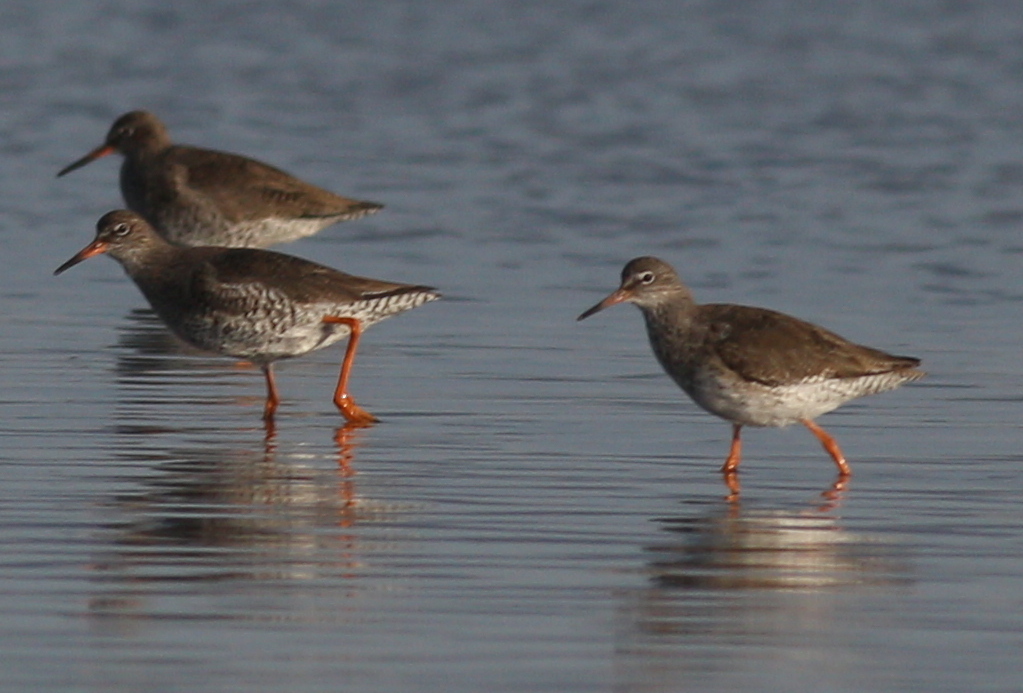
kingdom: Animalia
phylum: Chordata
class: Aves
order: Charadriiformes
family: Scolopacidae
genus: Tringa
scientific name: Tringa totanus
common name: Common redshank
